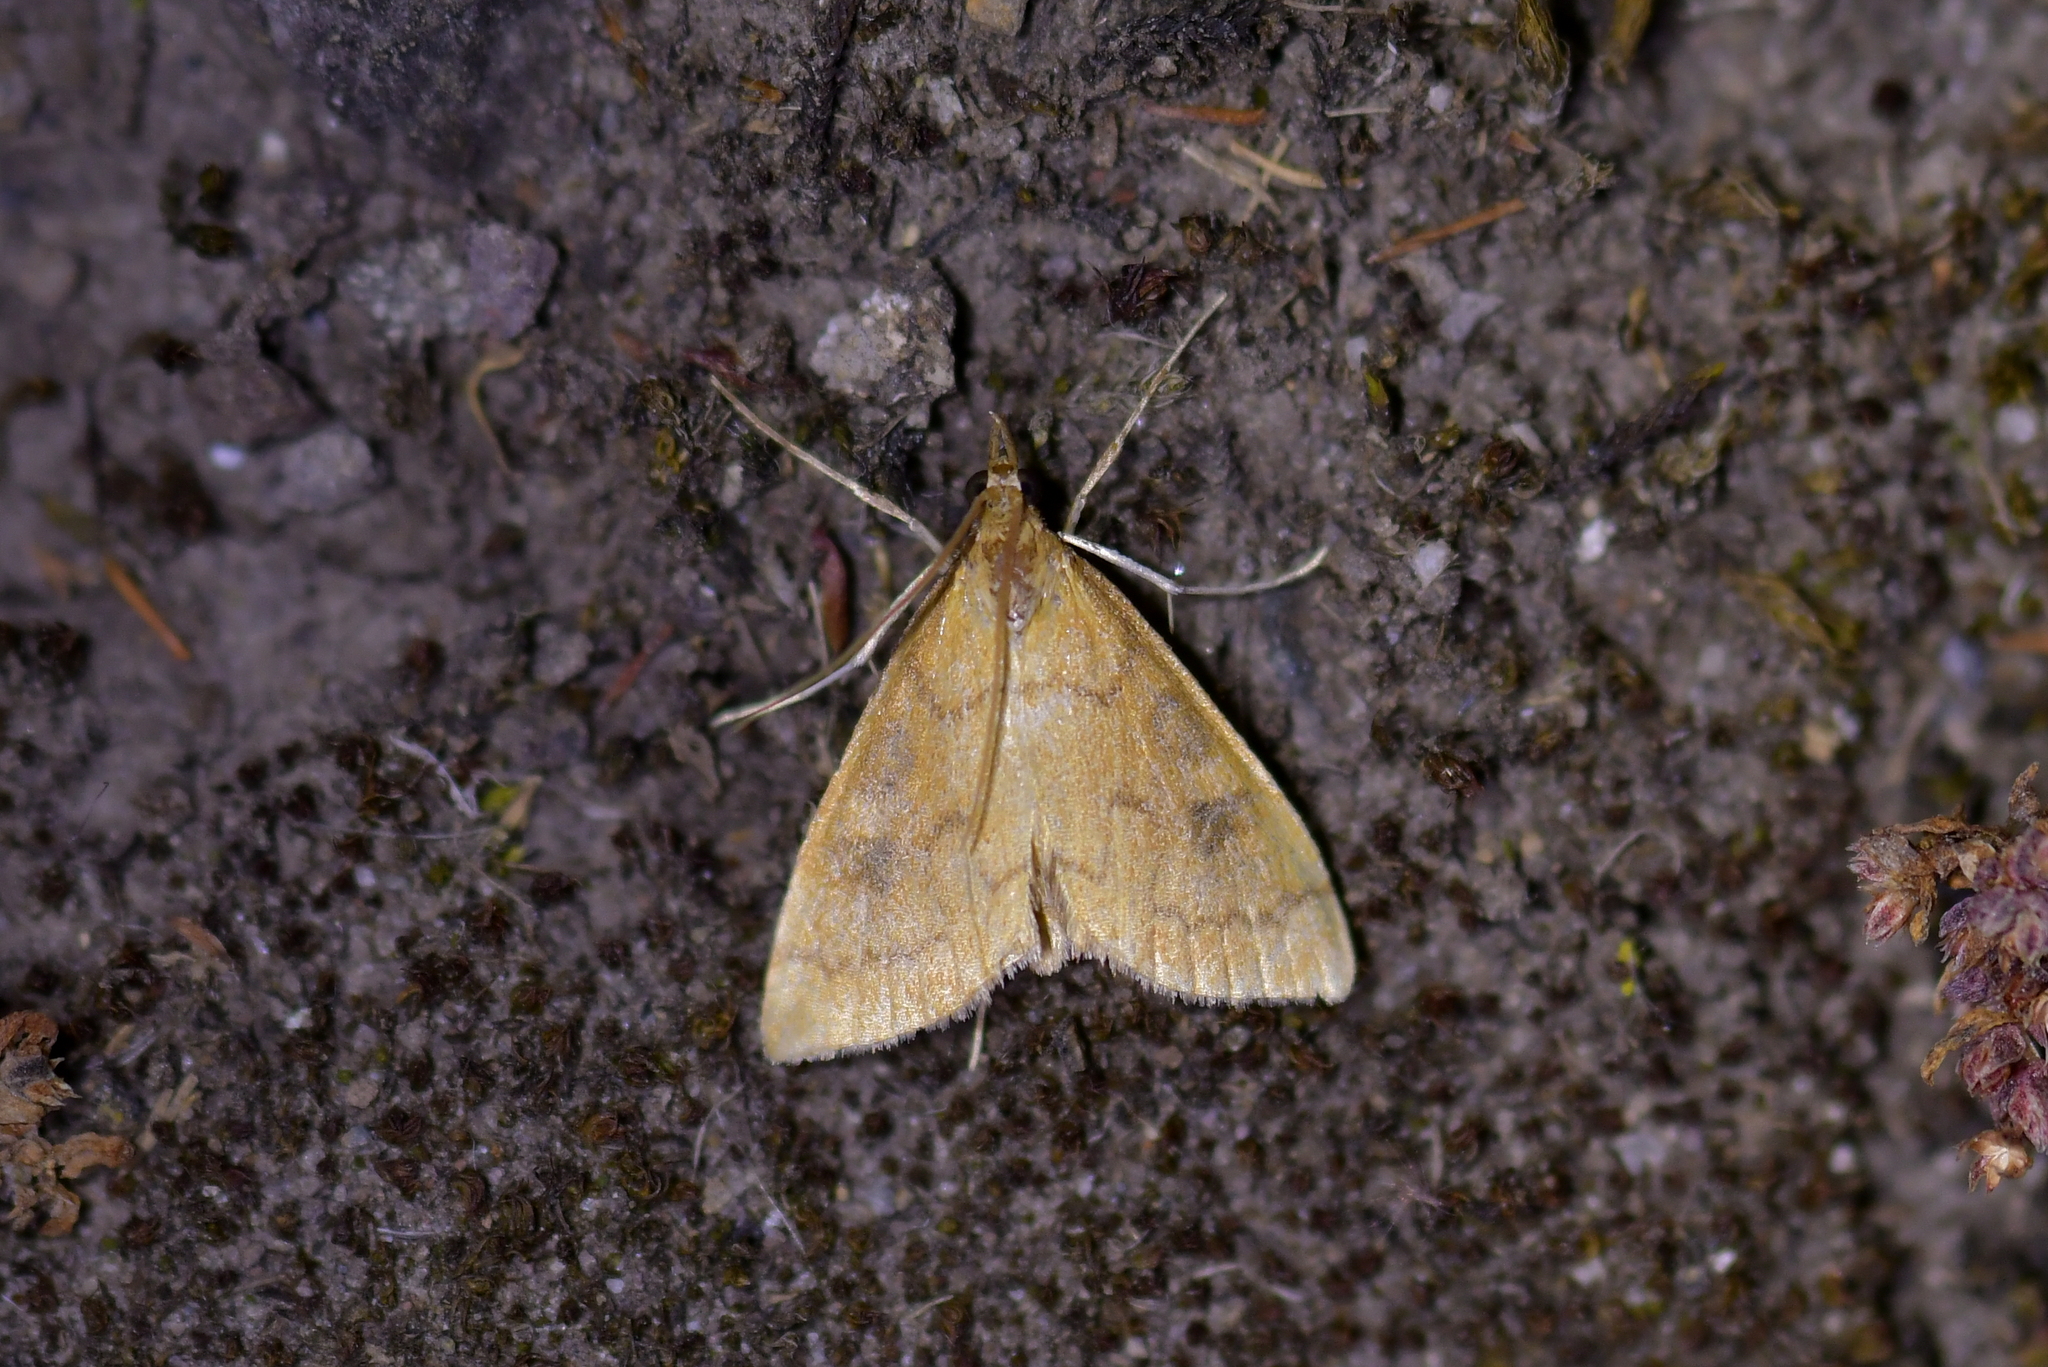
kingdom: Animalia
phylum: Arthropoda
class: Insecta
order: Lepidoptera
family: Crambidae
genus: Udea
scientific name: Udea Mnesictena flavidalis
